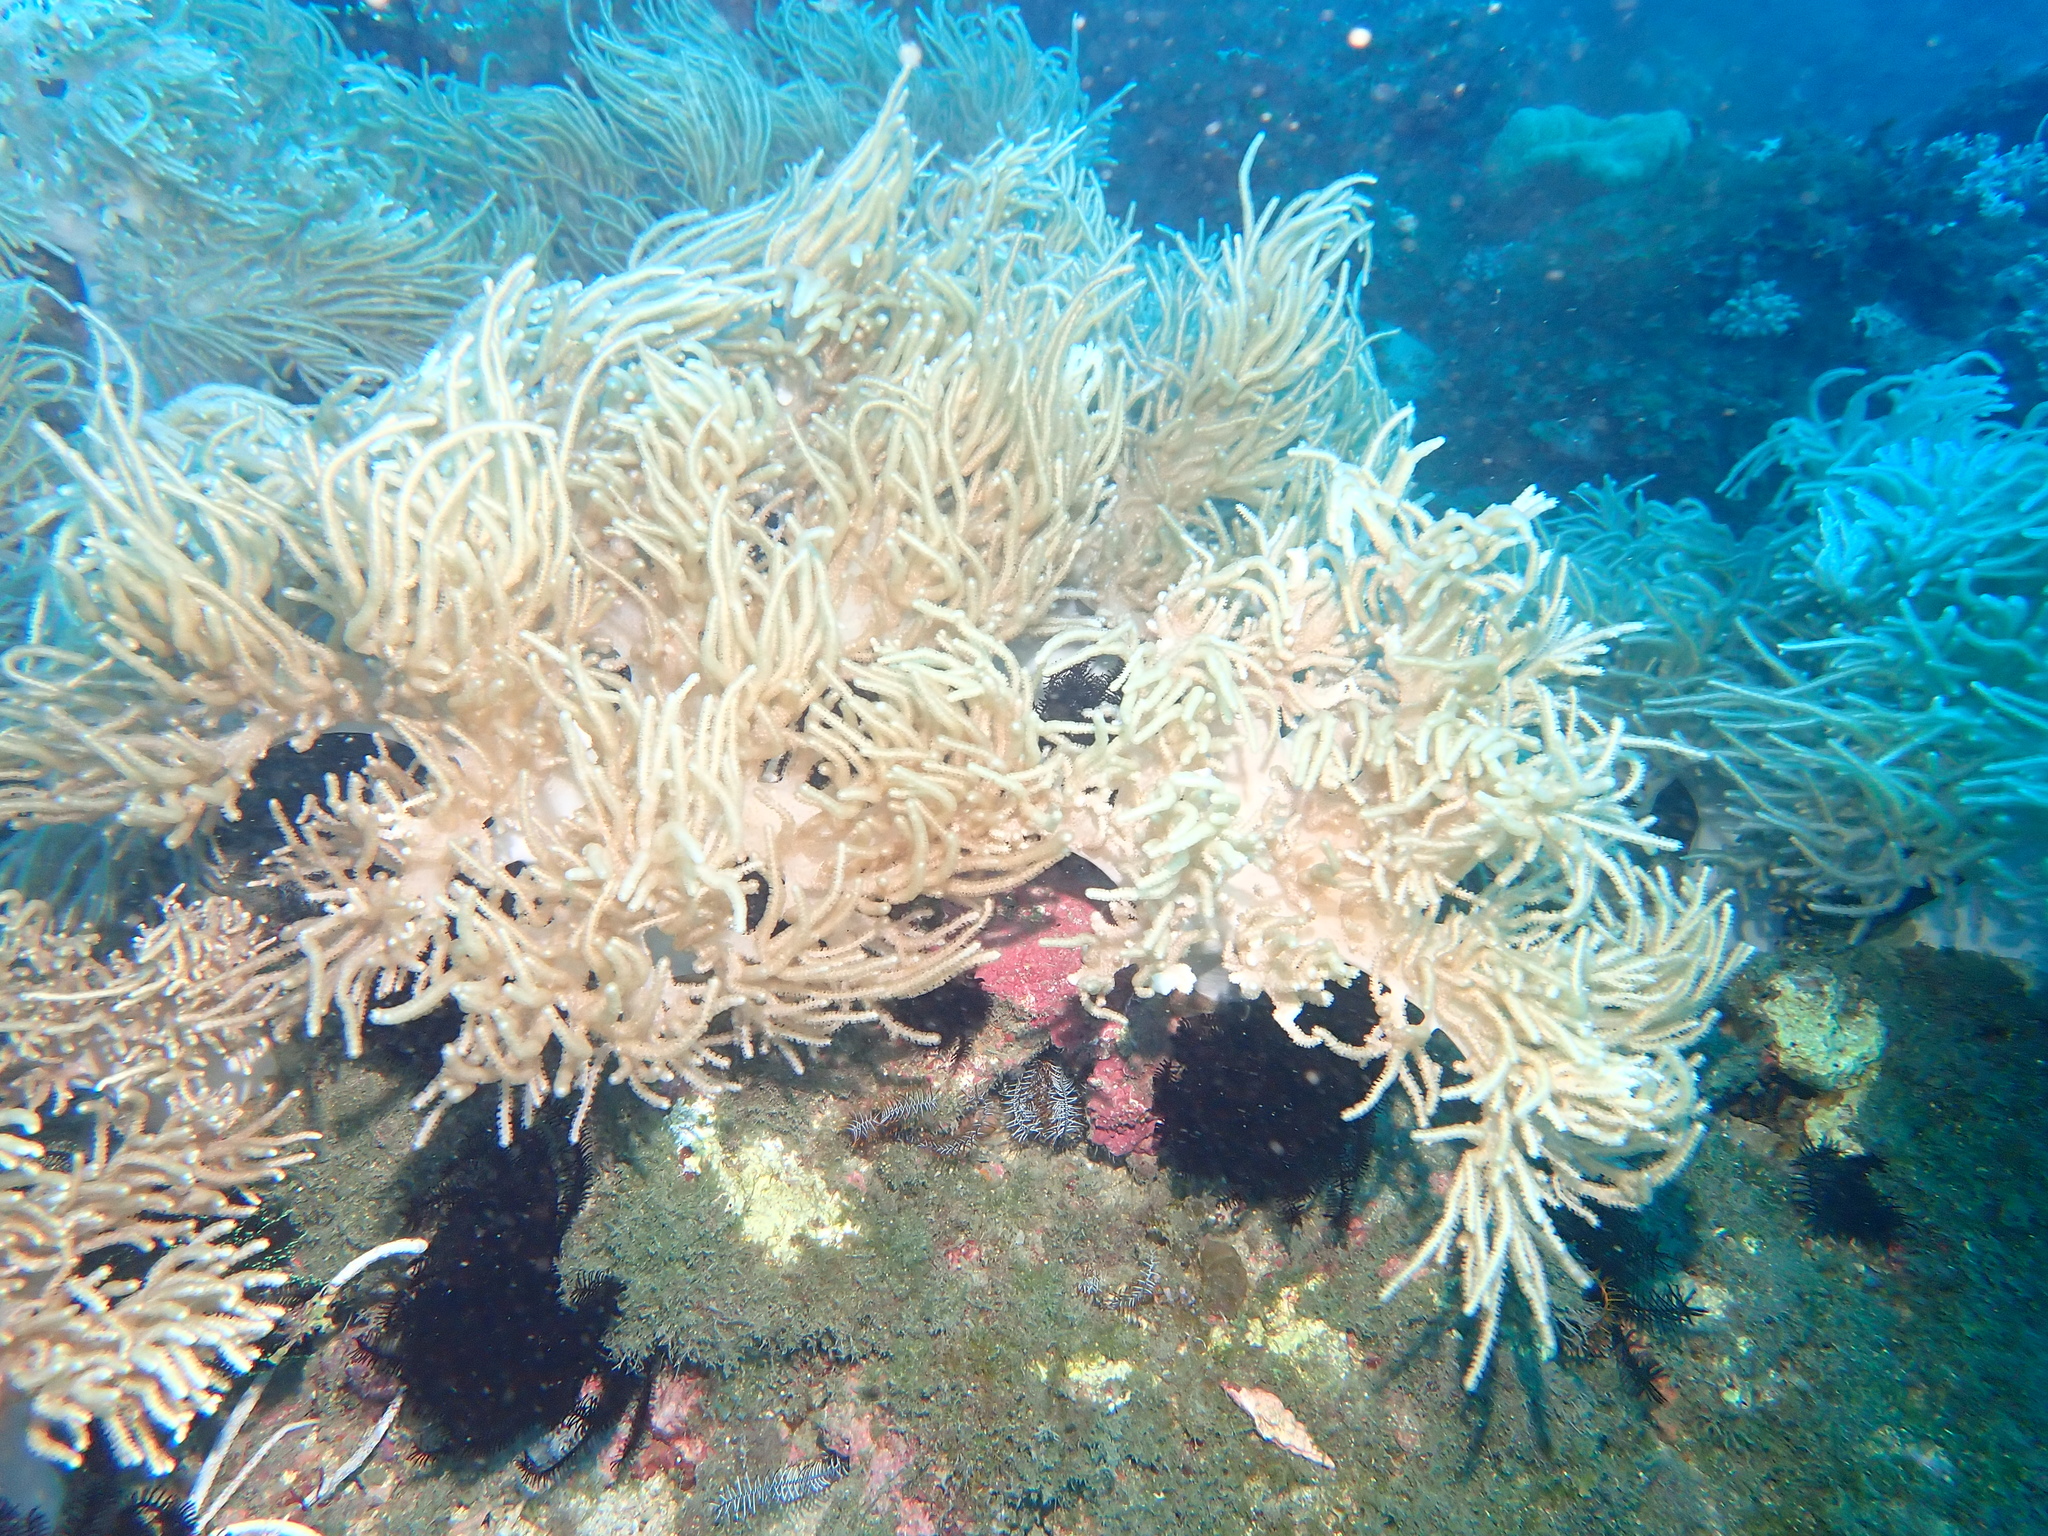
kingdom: Animalia
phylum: Cnidaria
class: Anthozoa
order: Malacalcyonacea
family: Sarcophytidae
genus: Sclerophytum
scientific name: Sclerophytum flexibile
